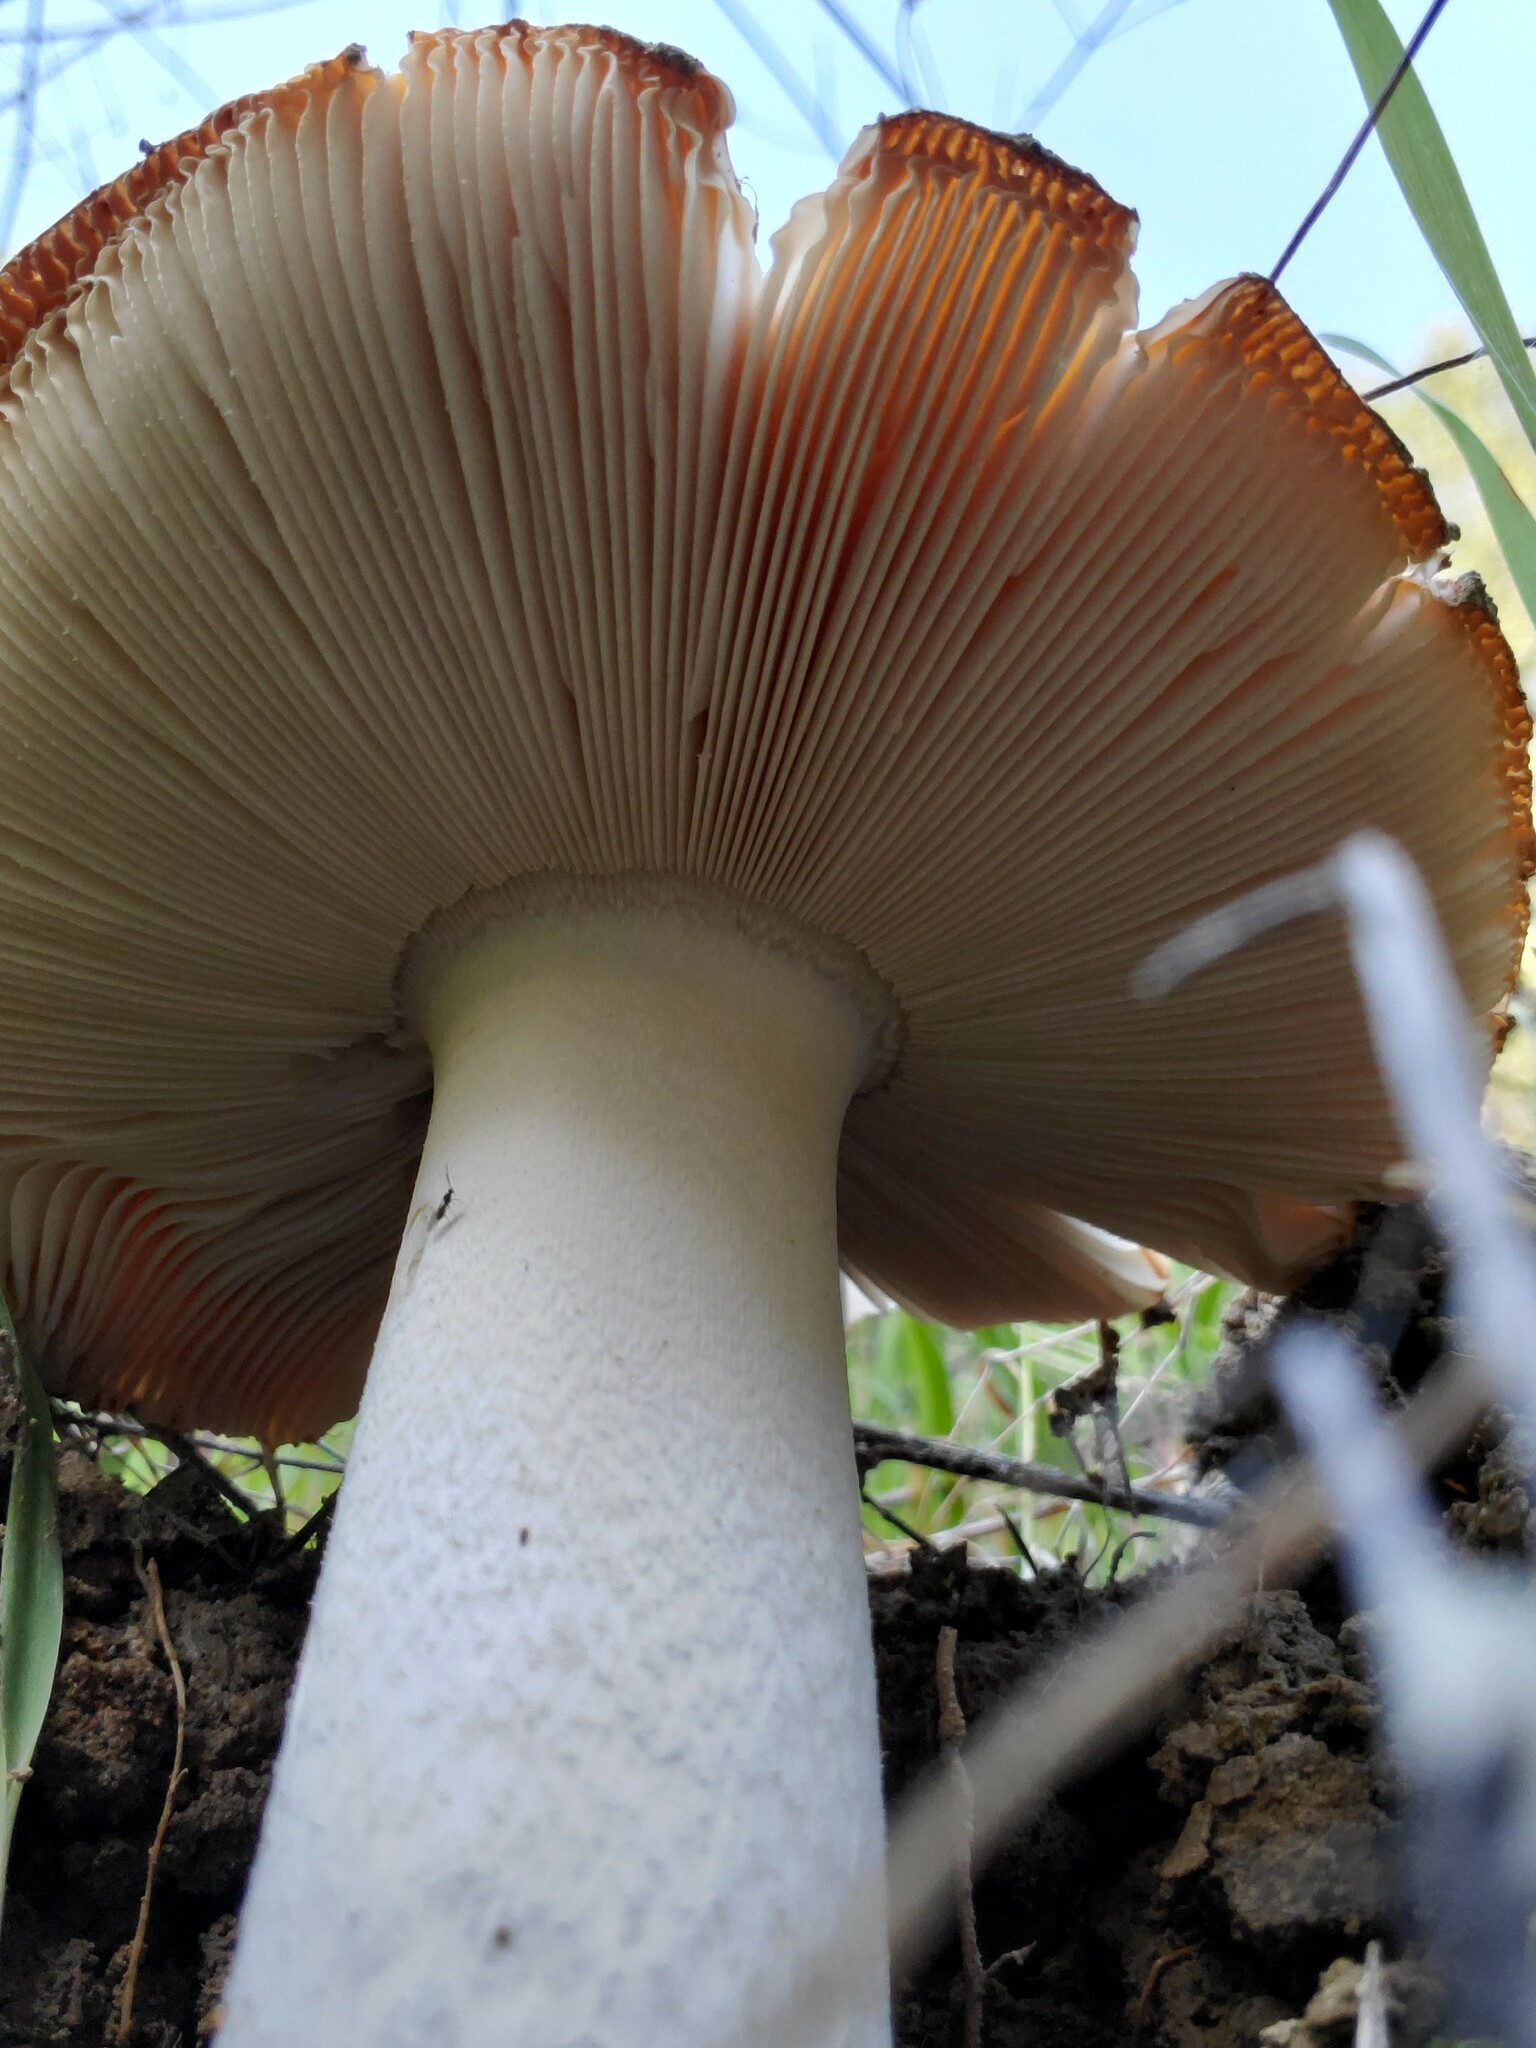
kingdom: Fungi
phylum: Basidiomycota
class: Agaricomycetes
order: Agaricales
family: Amanitaceae
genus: Amanita
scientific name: Amanita velosa
